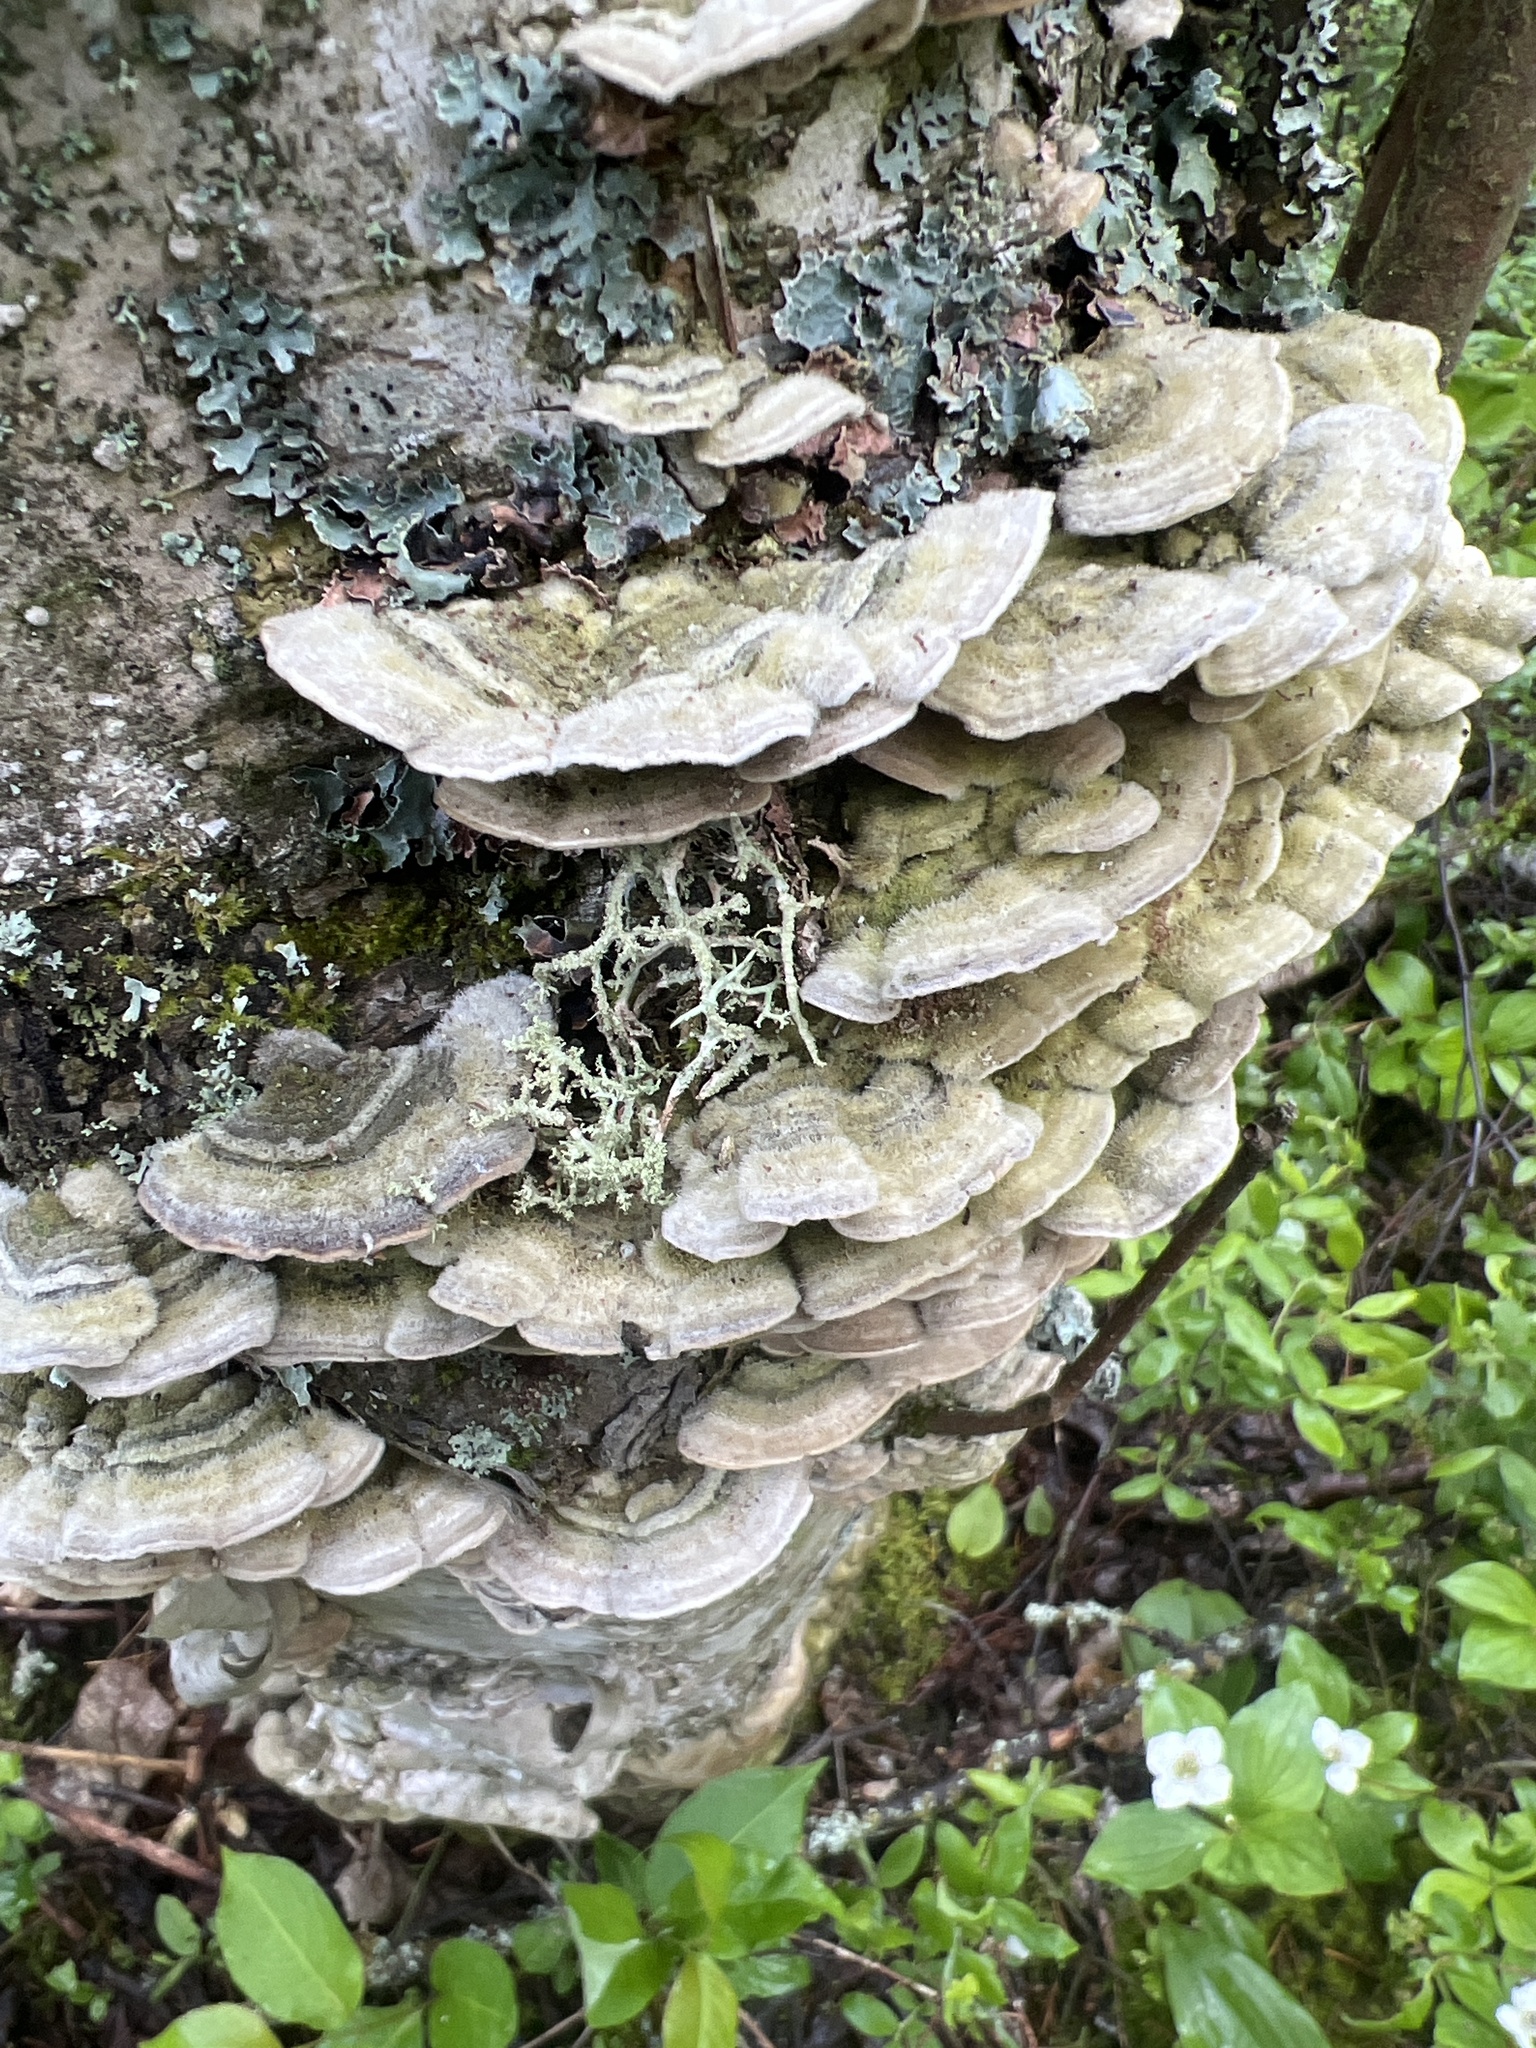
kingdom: Fungi
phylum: Basidiomycota
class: Agaricomycetes
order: Polyporales
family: Cerrenaceae
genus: Cerrena
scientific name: Cerrena unicolor
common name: Mossy maze polypore
